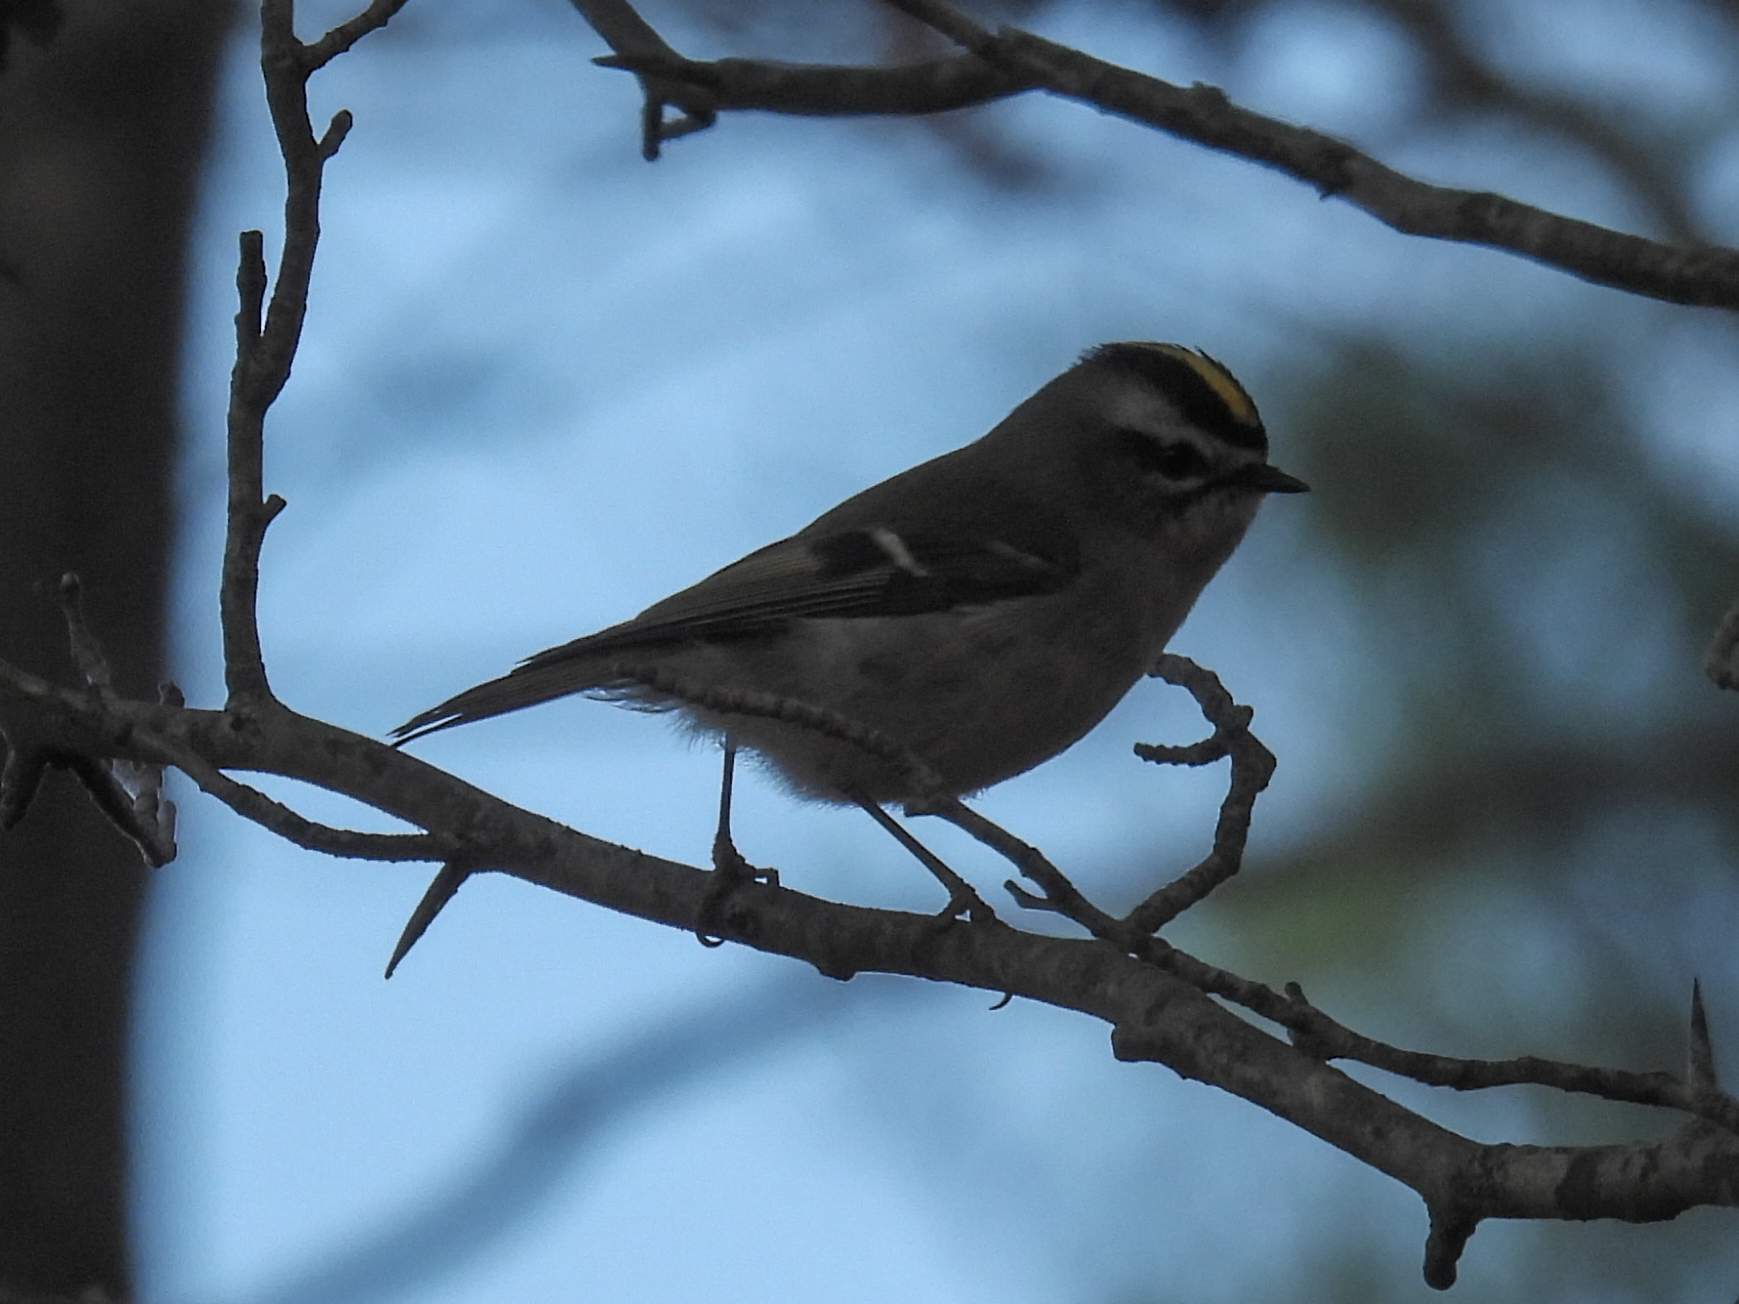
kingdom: Animalia
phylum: Chordata
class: Aves
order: Passeriformes
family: Regulidae
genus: Regulus
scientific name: Regulus satrapa
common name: Golden-crowned kinglet
